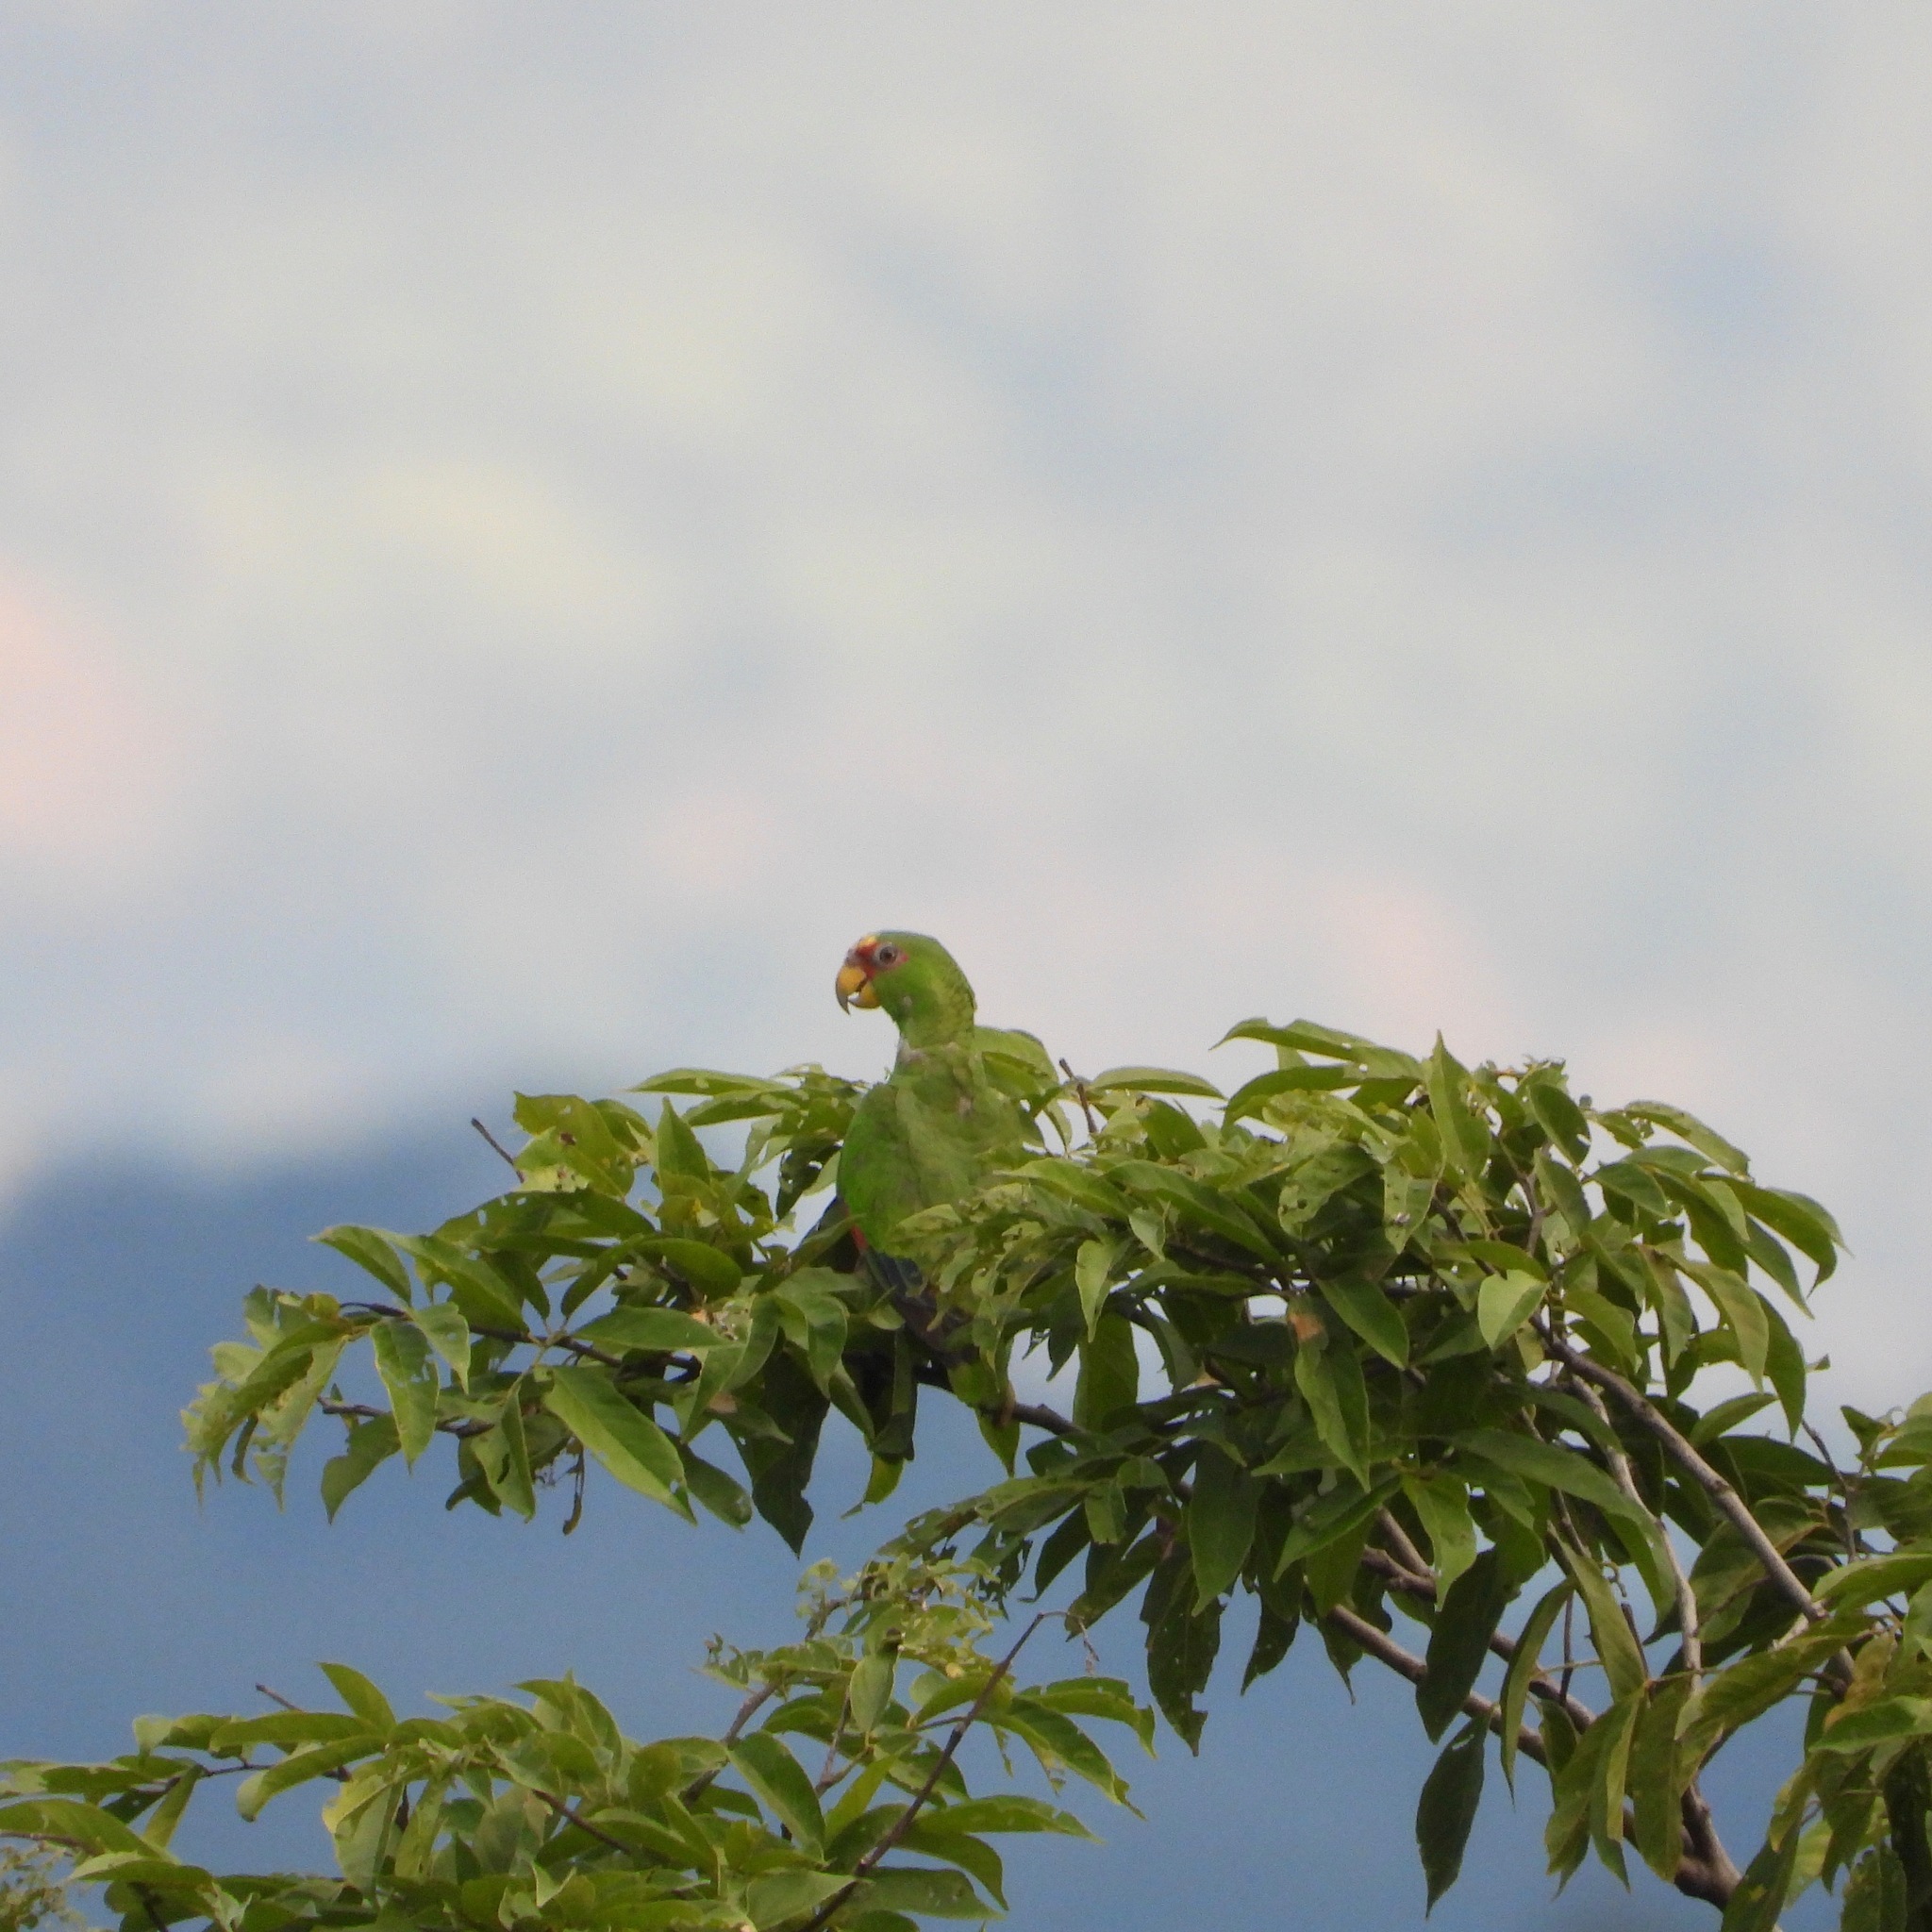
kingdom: Animalia
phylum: Chordata
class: Aves
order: Psittaciformes
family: Psittacidae
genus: Amazona
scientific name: Amazona albifrons
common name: White-fronted amazon
